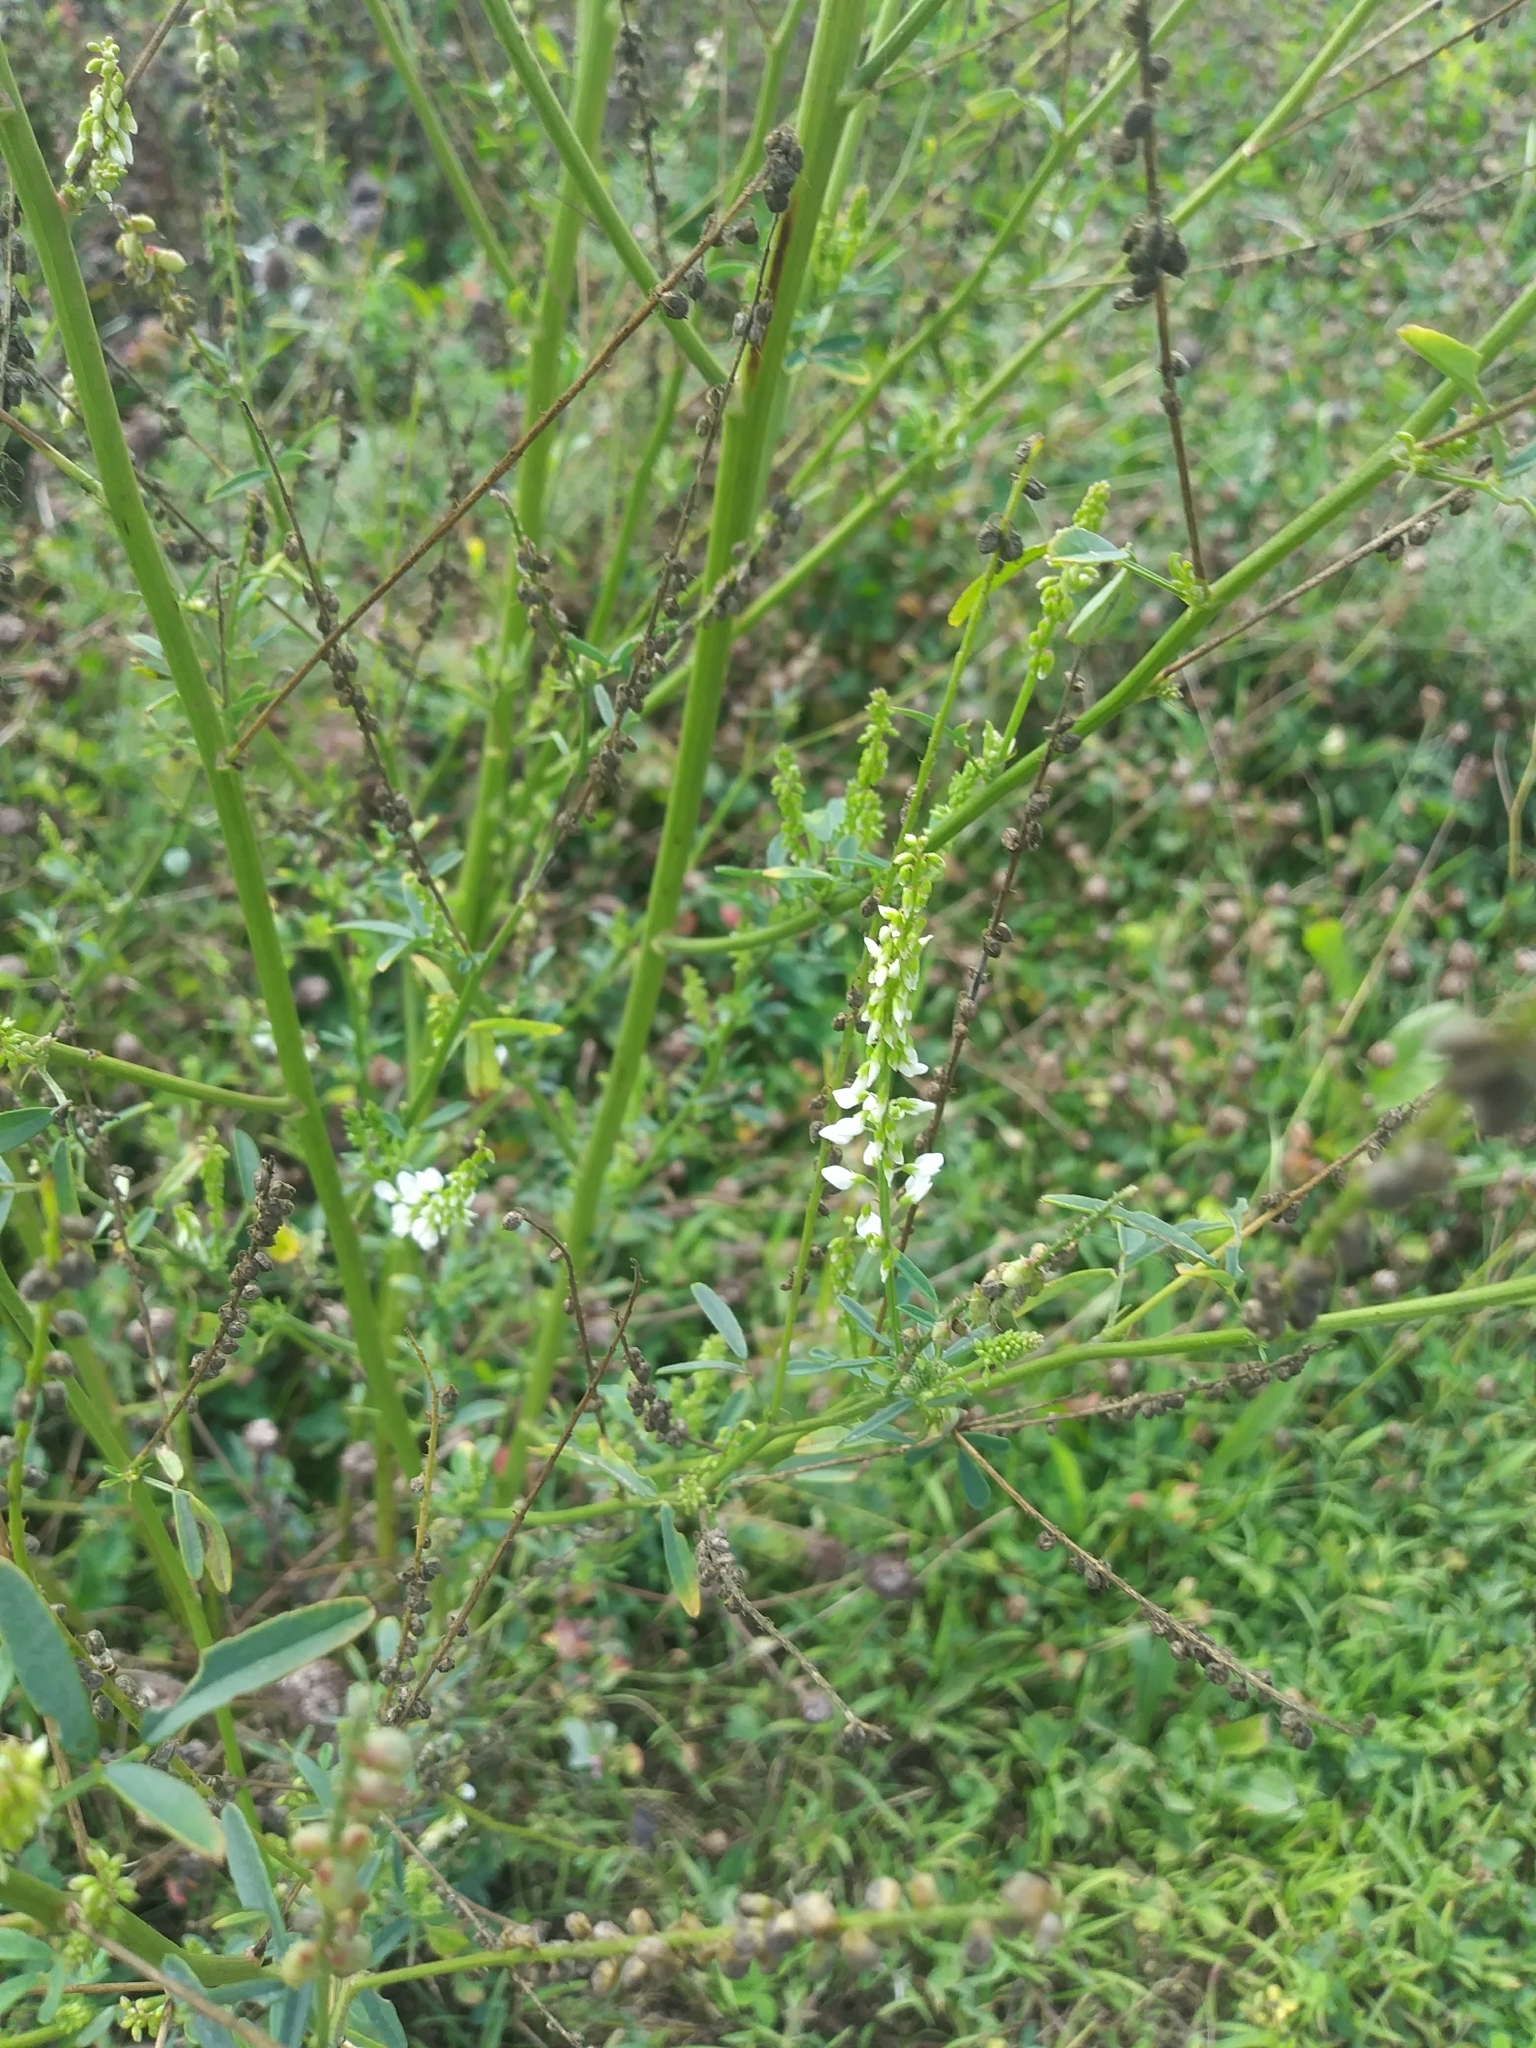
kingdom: Plantae
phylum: Tracheophyta
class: Magnoliopsida
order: Fabales
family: Fabaceae
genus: Melilotus
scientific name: Melilotus albus
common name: White melilot
